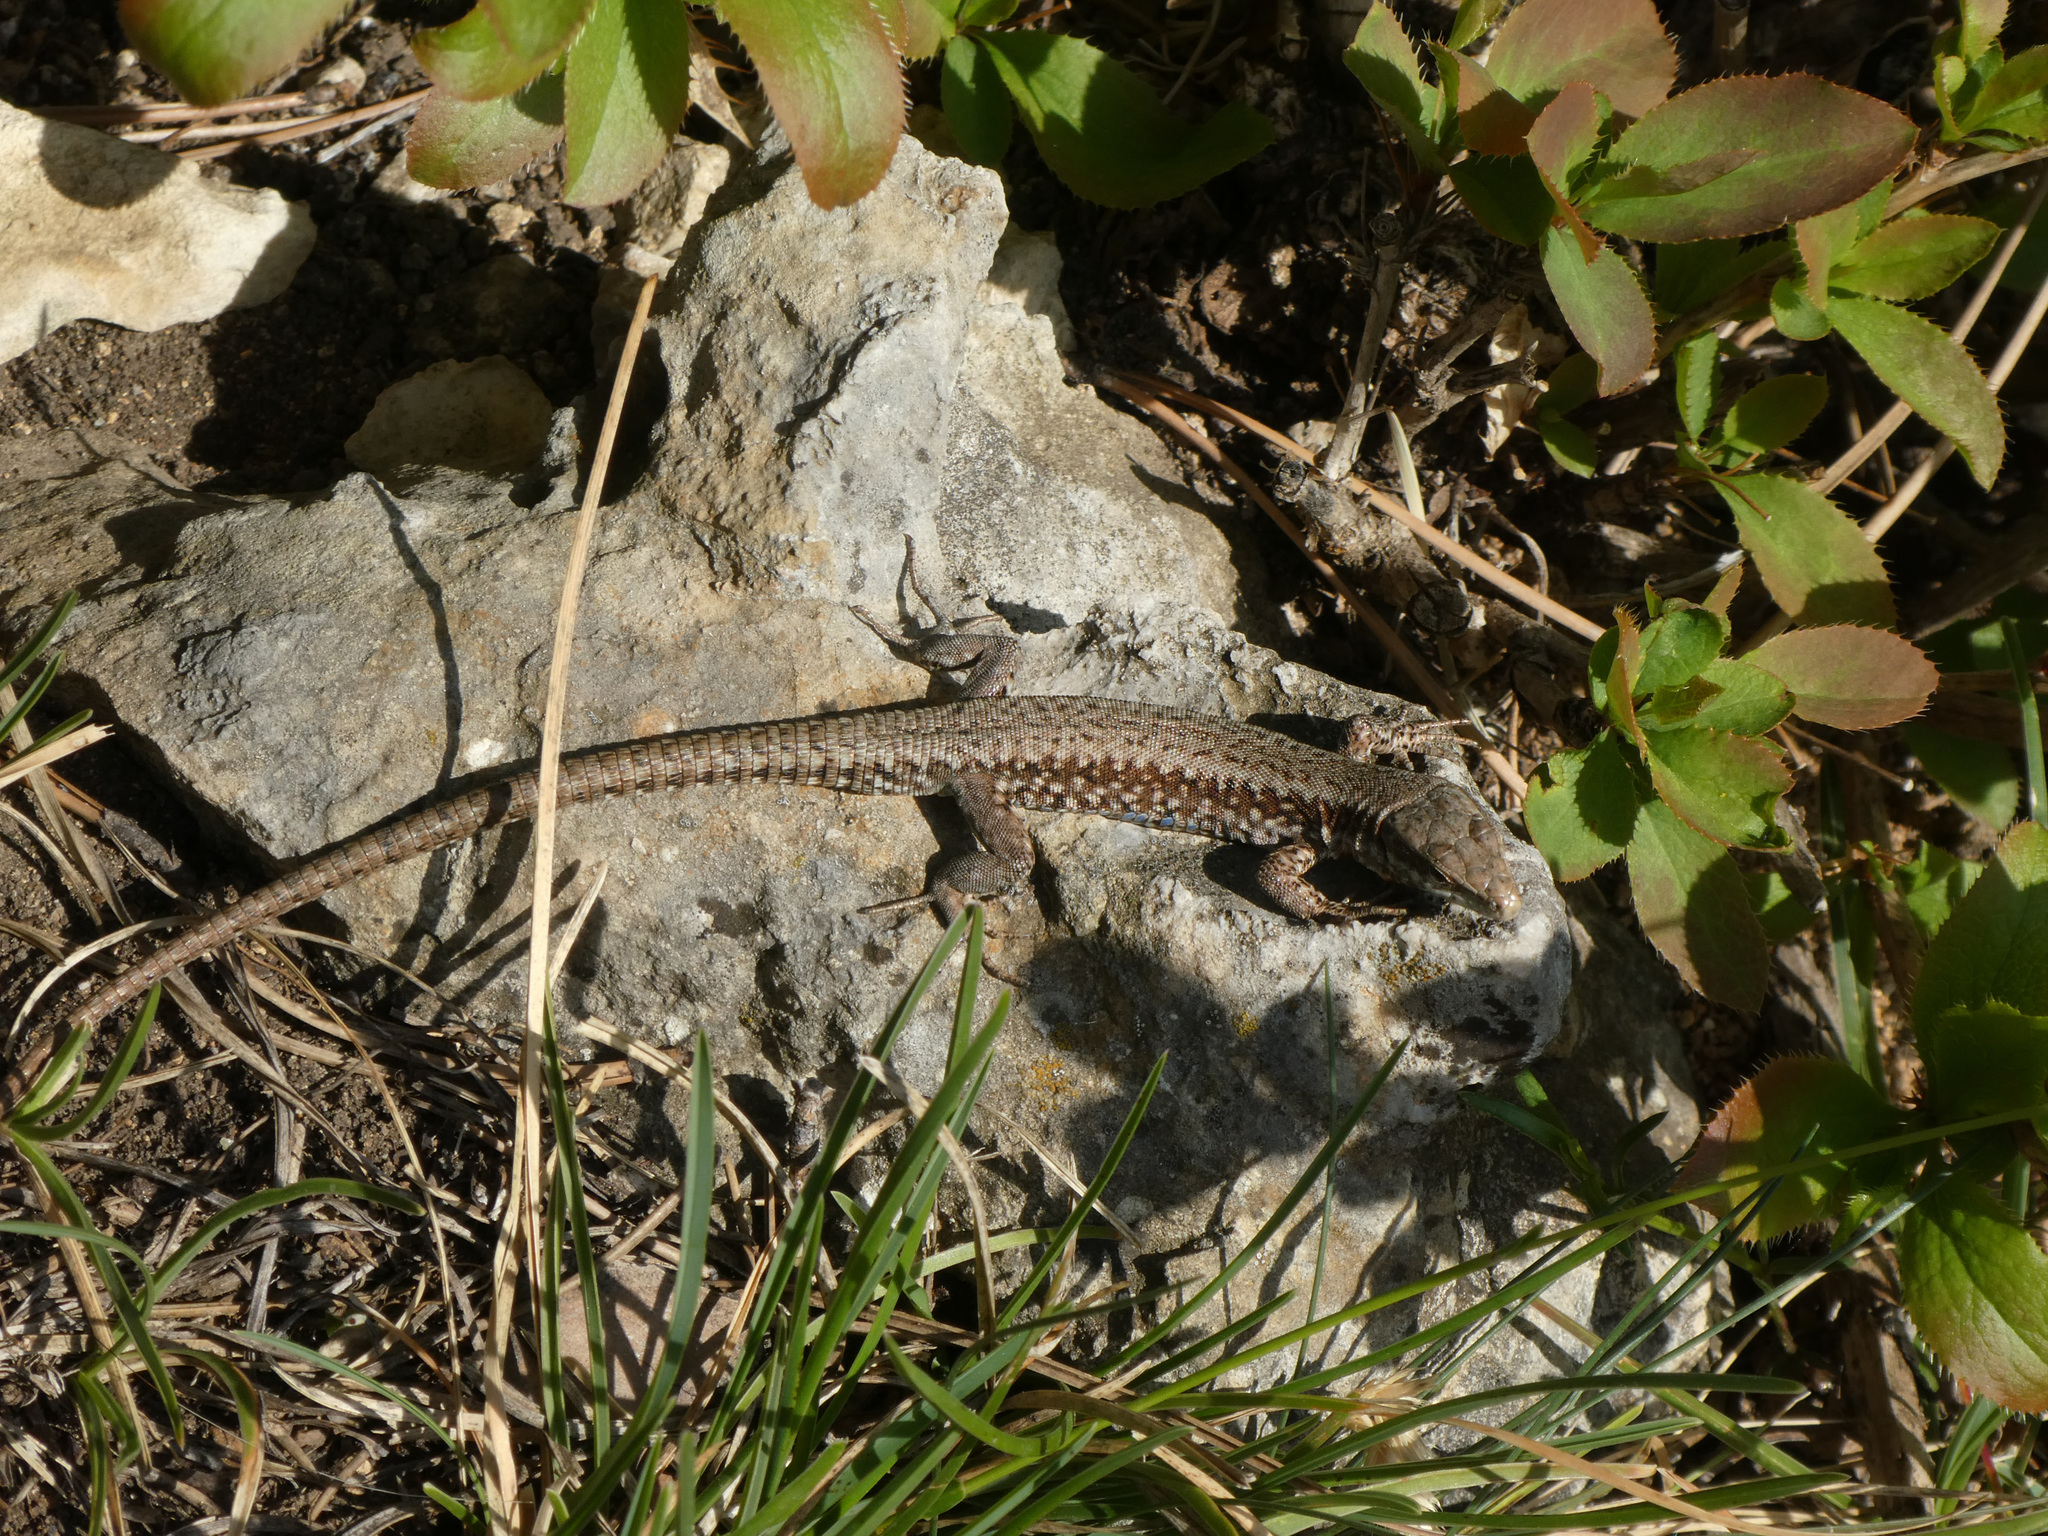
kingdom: Animalia
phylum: Chordata
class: Squamata
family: Lacertidae
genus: Podarcis
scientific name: Podarcis muralis
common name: Common wall lizard
